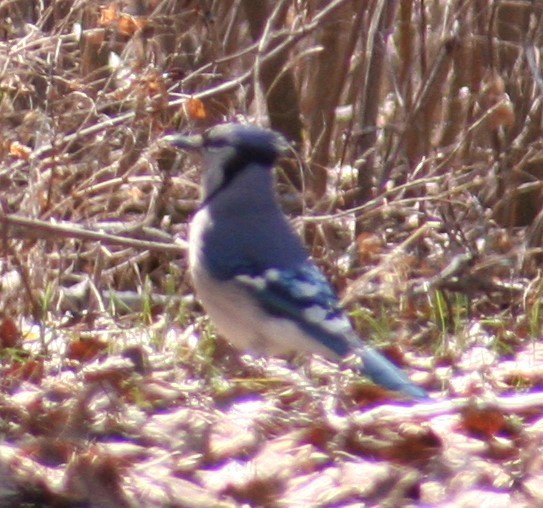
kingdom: Animalia
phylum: Chordata
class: Aves
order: Passeriformes
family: Corvidae
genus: Cyanocitta
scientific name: Cyanocitta cristata
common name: Blue jay
